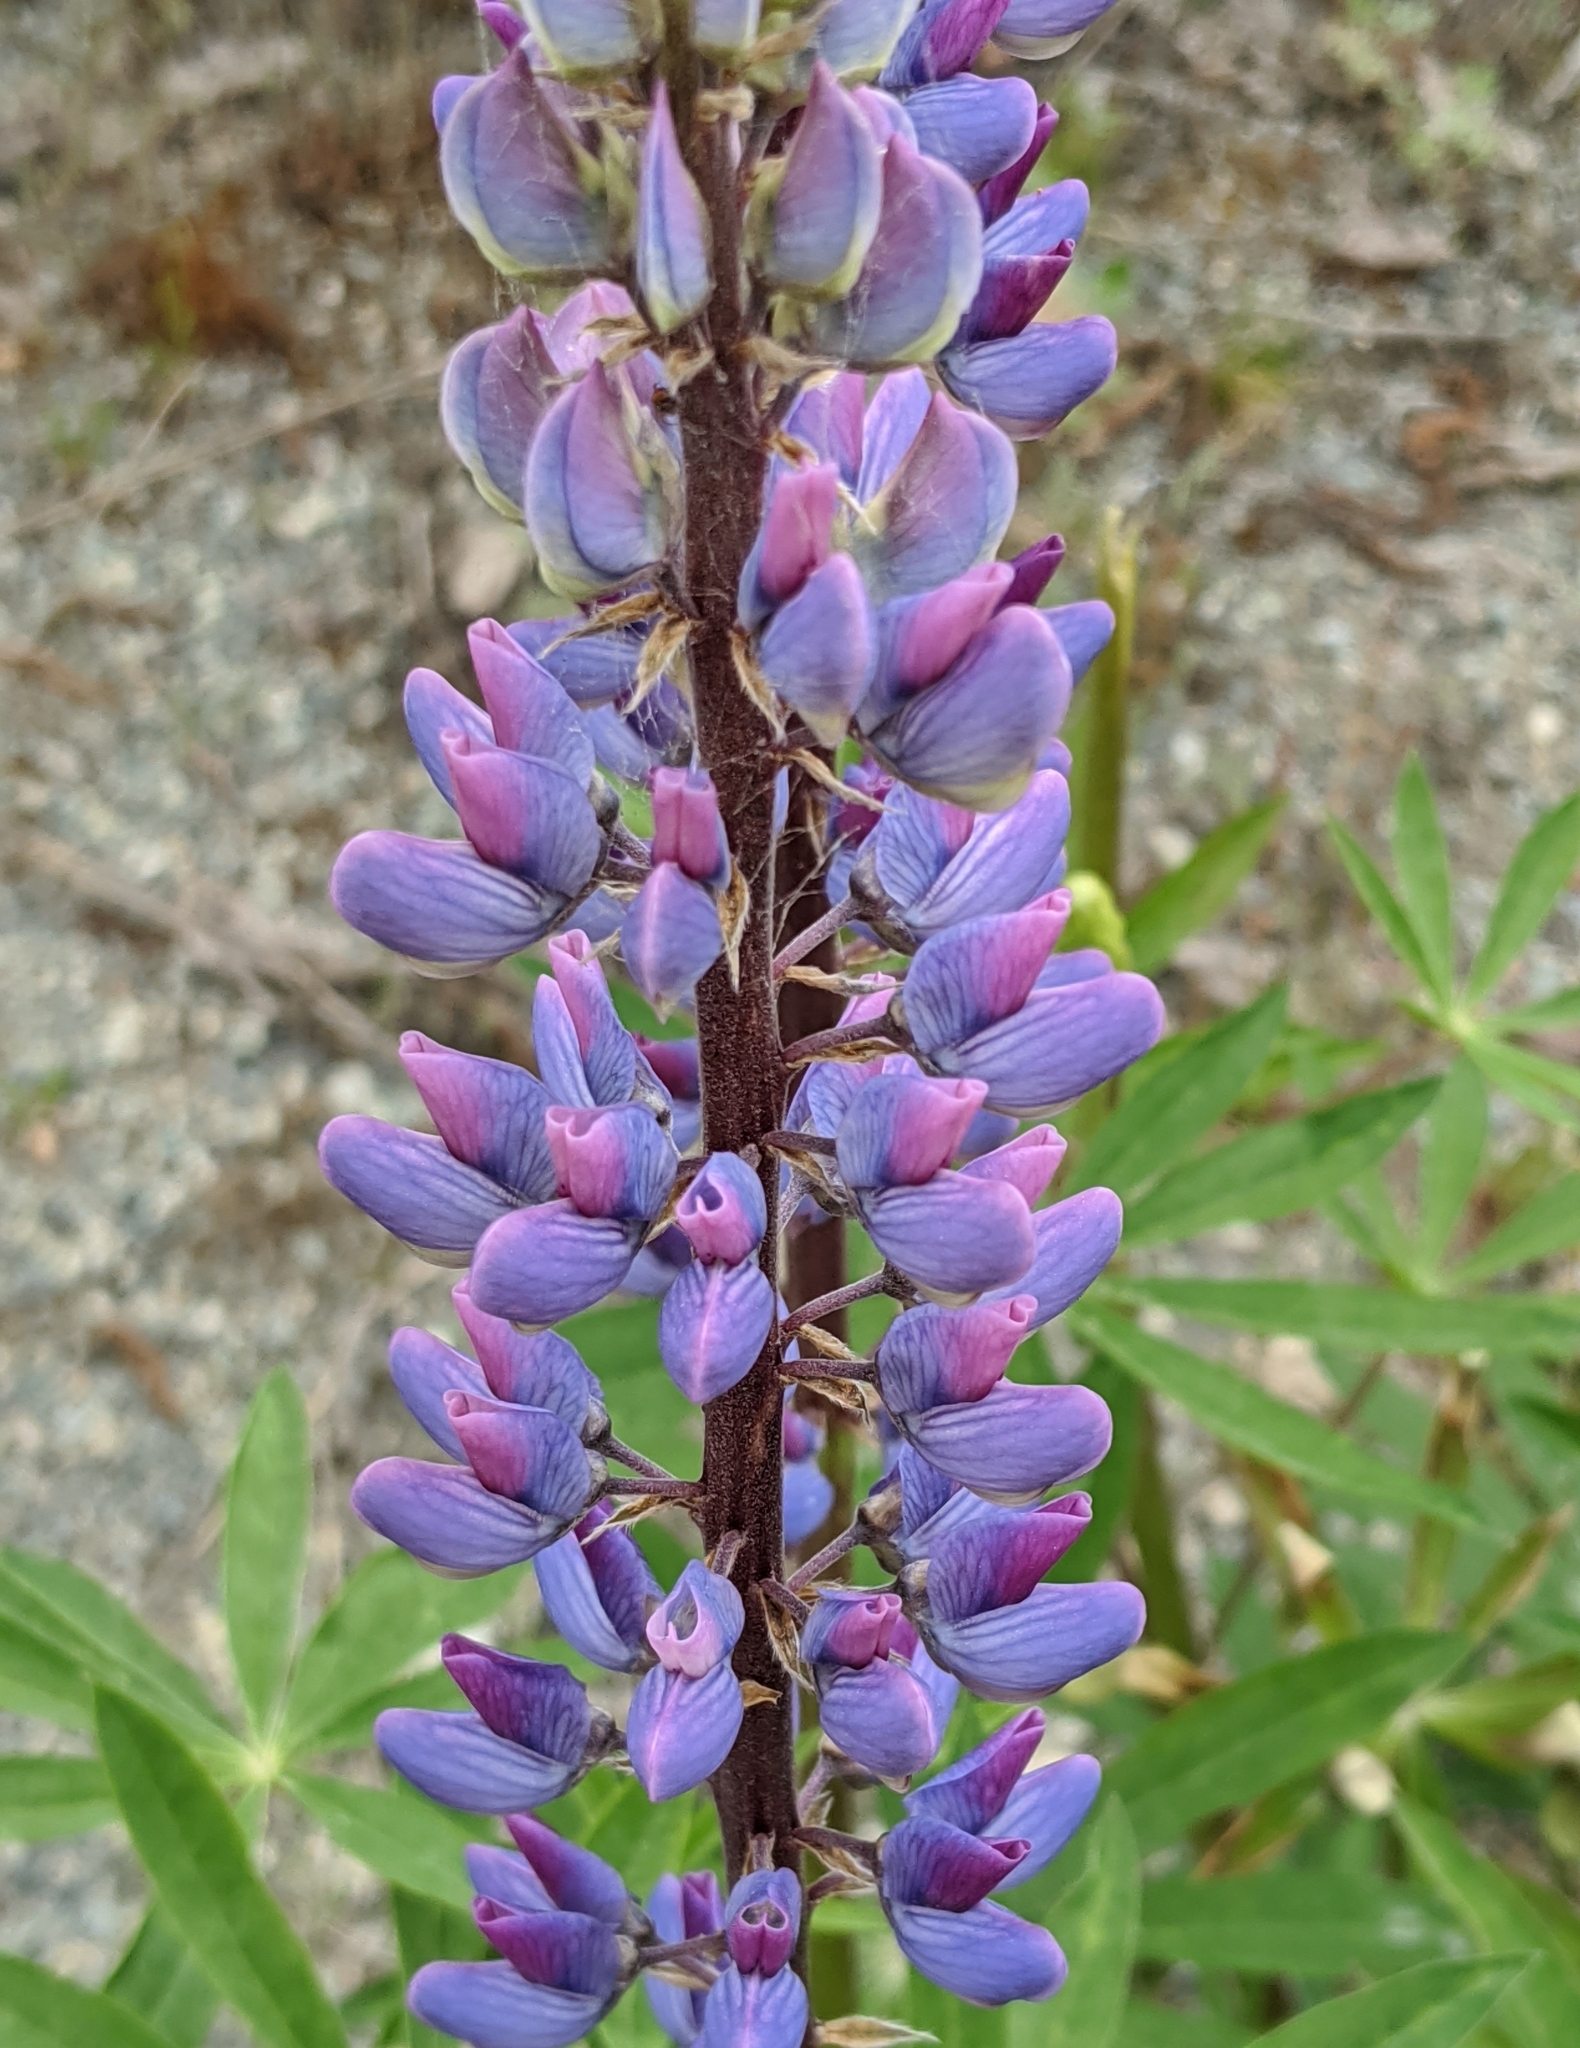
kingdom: Plantae
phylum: Tracheophyta
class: Magnoliopsida
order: Fabales
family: Fabaceae
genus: Lupinus
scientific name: Lupinus polyphyllus
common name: Garden lupin
